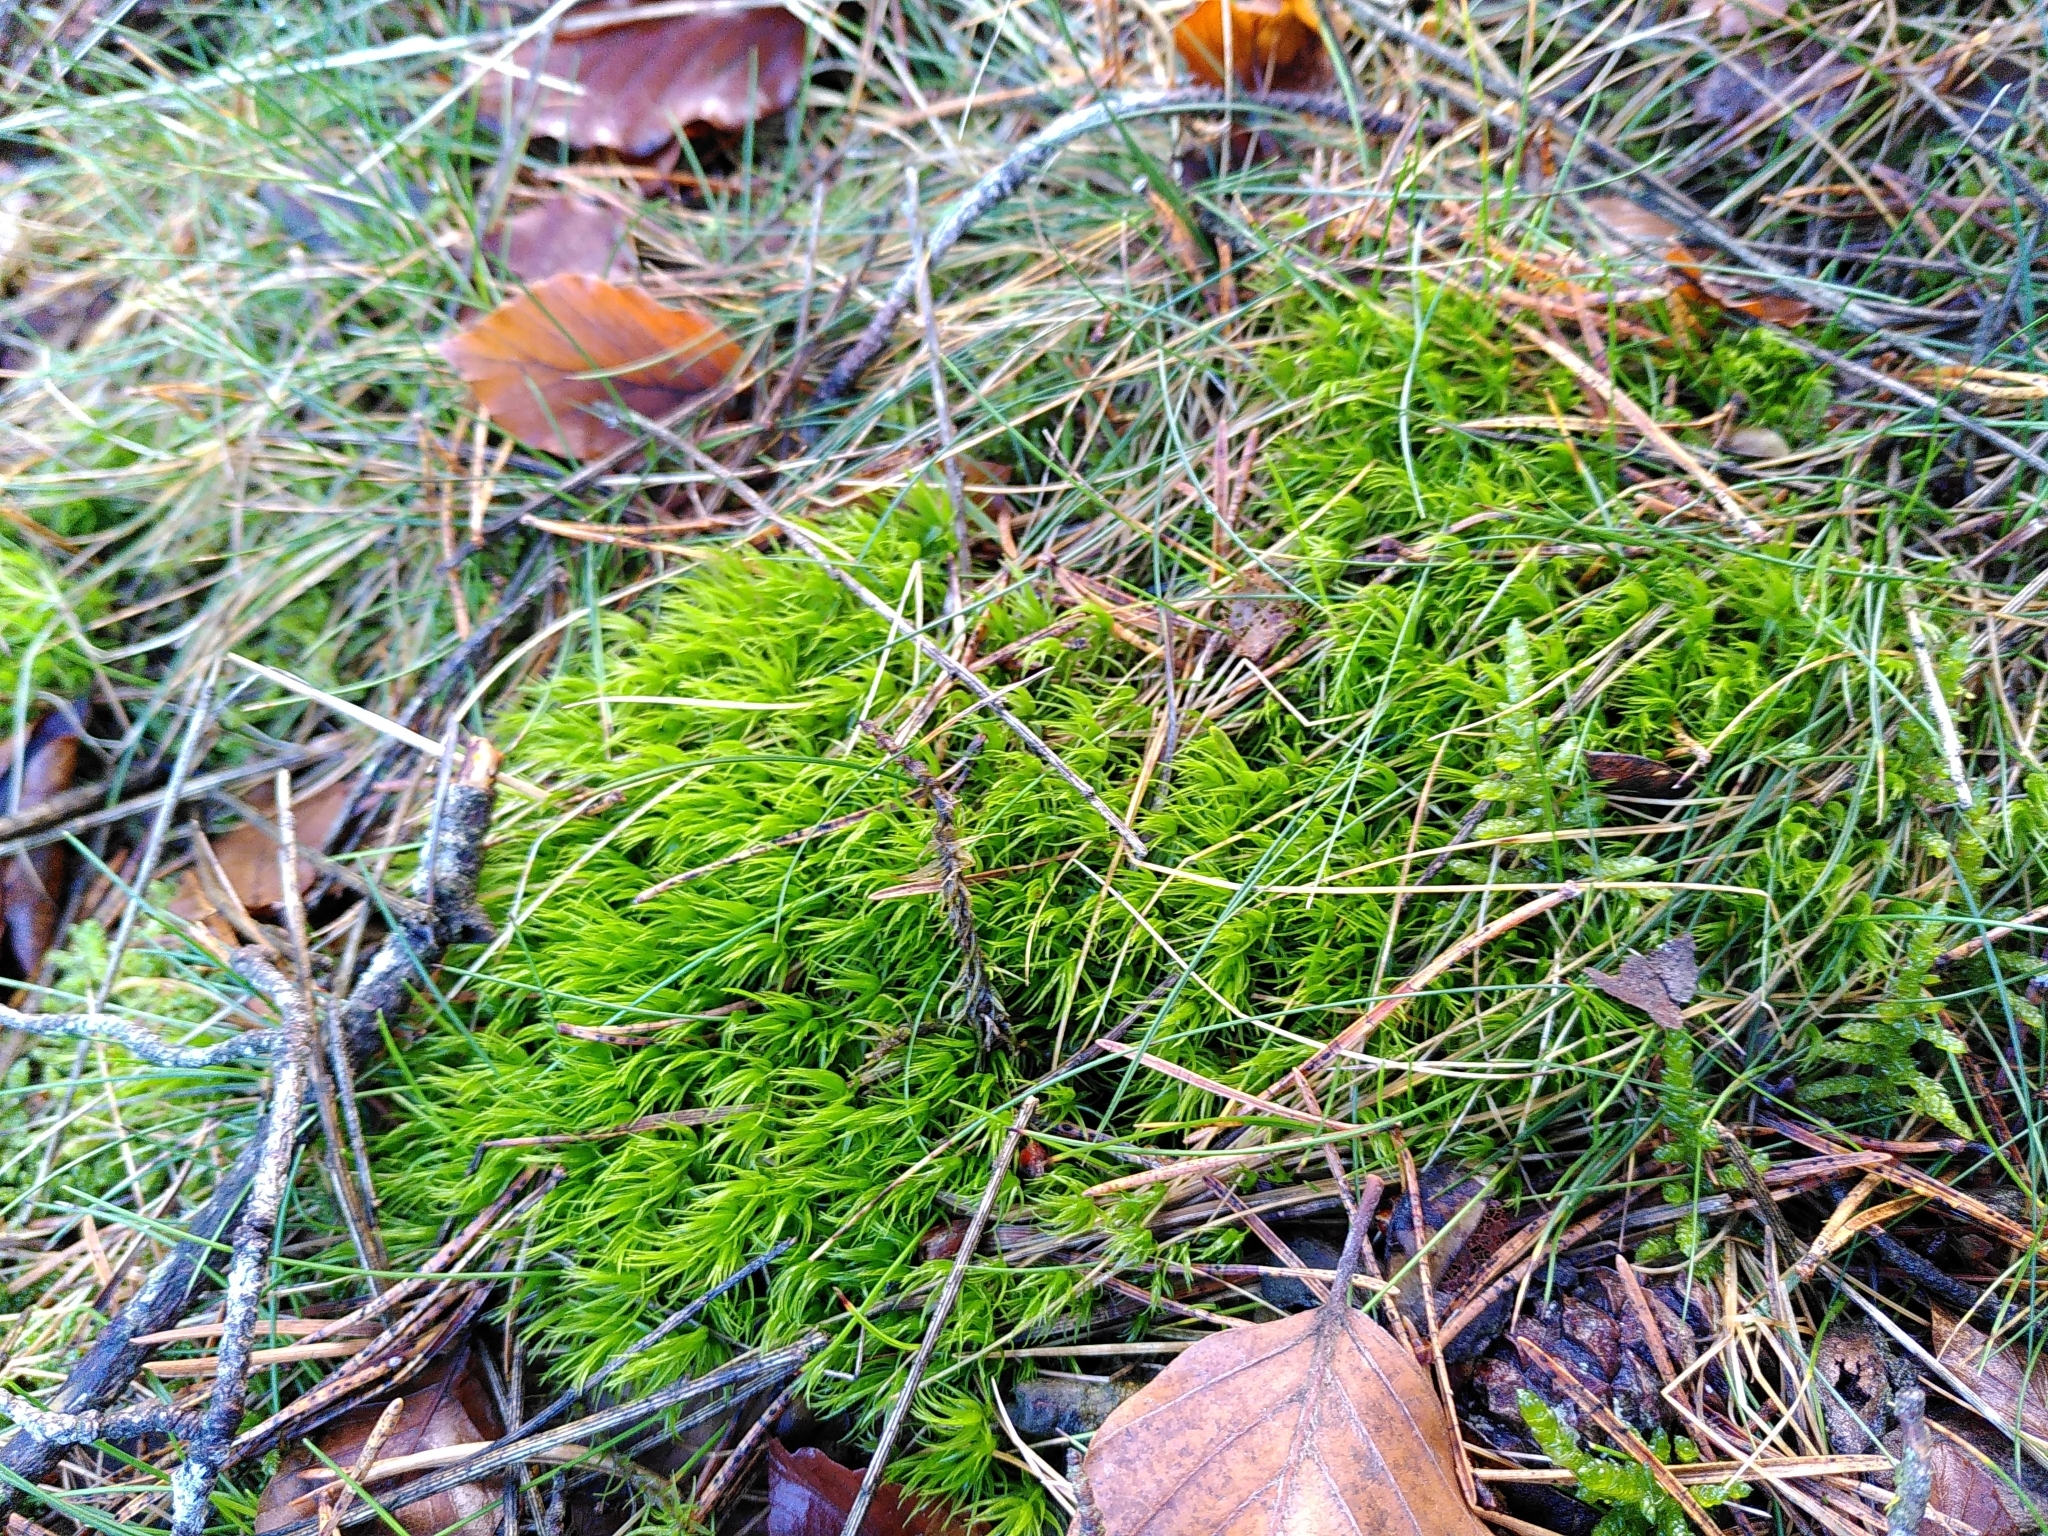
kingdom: Plantae
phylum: Bryophyta
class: Bryopsida
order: Dicranales
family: Dicranaceae
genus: Dicranum
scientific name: Dicranum scoparium
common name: Broom fork-moss
